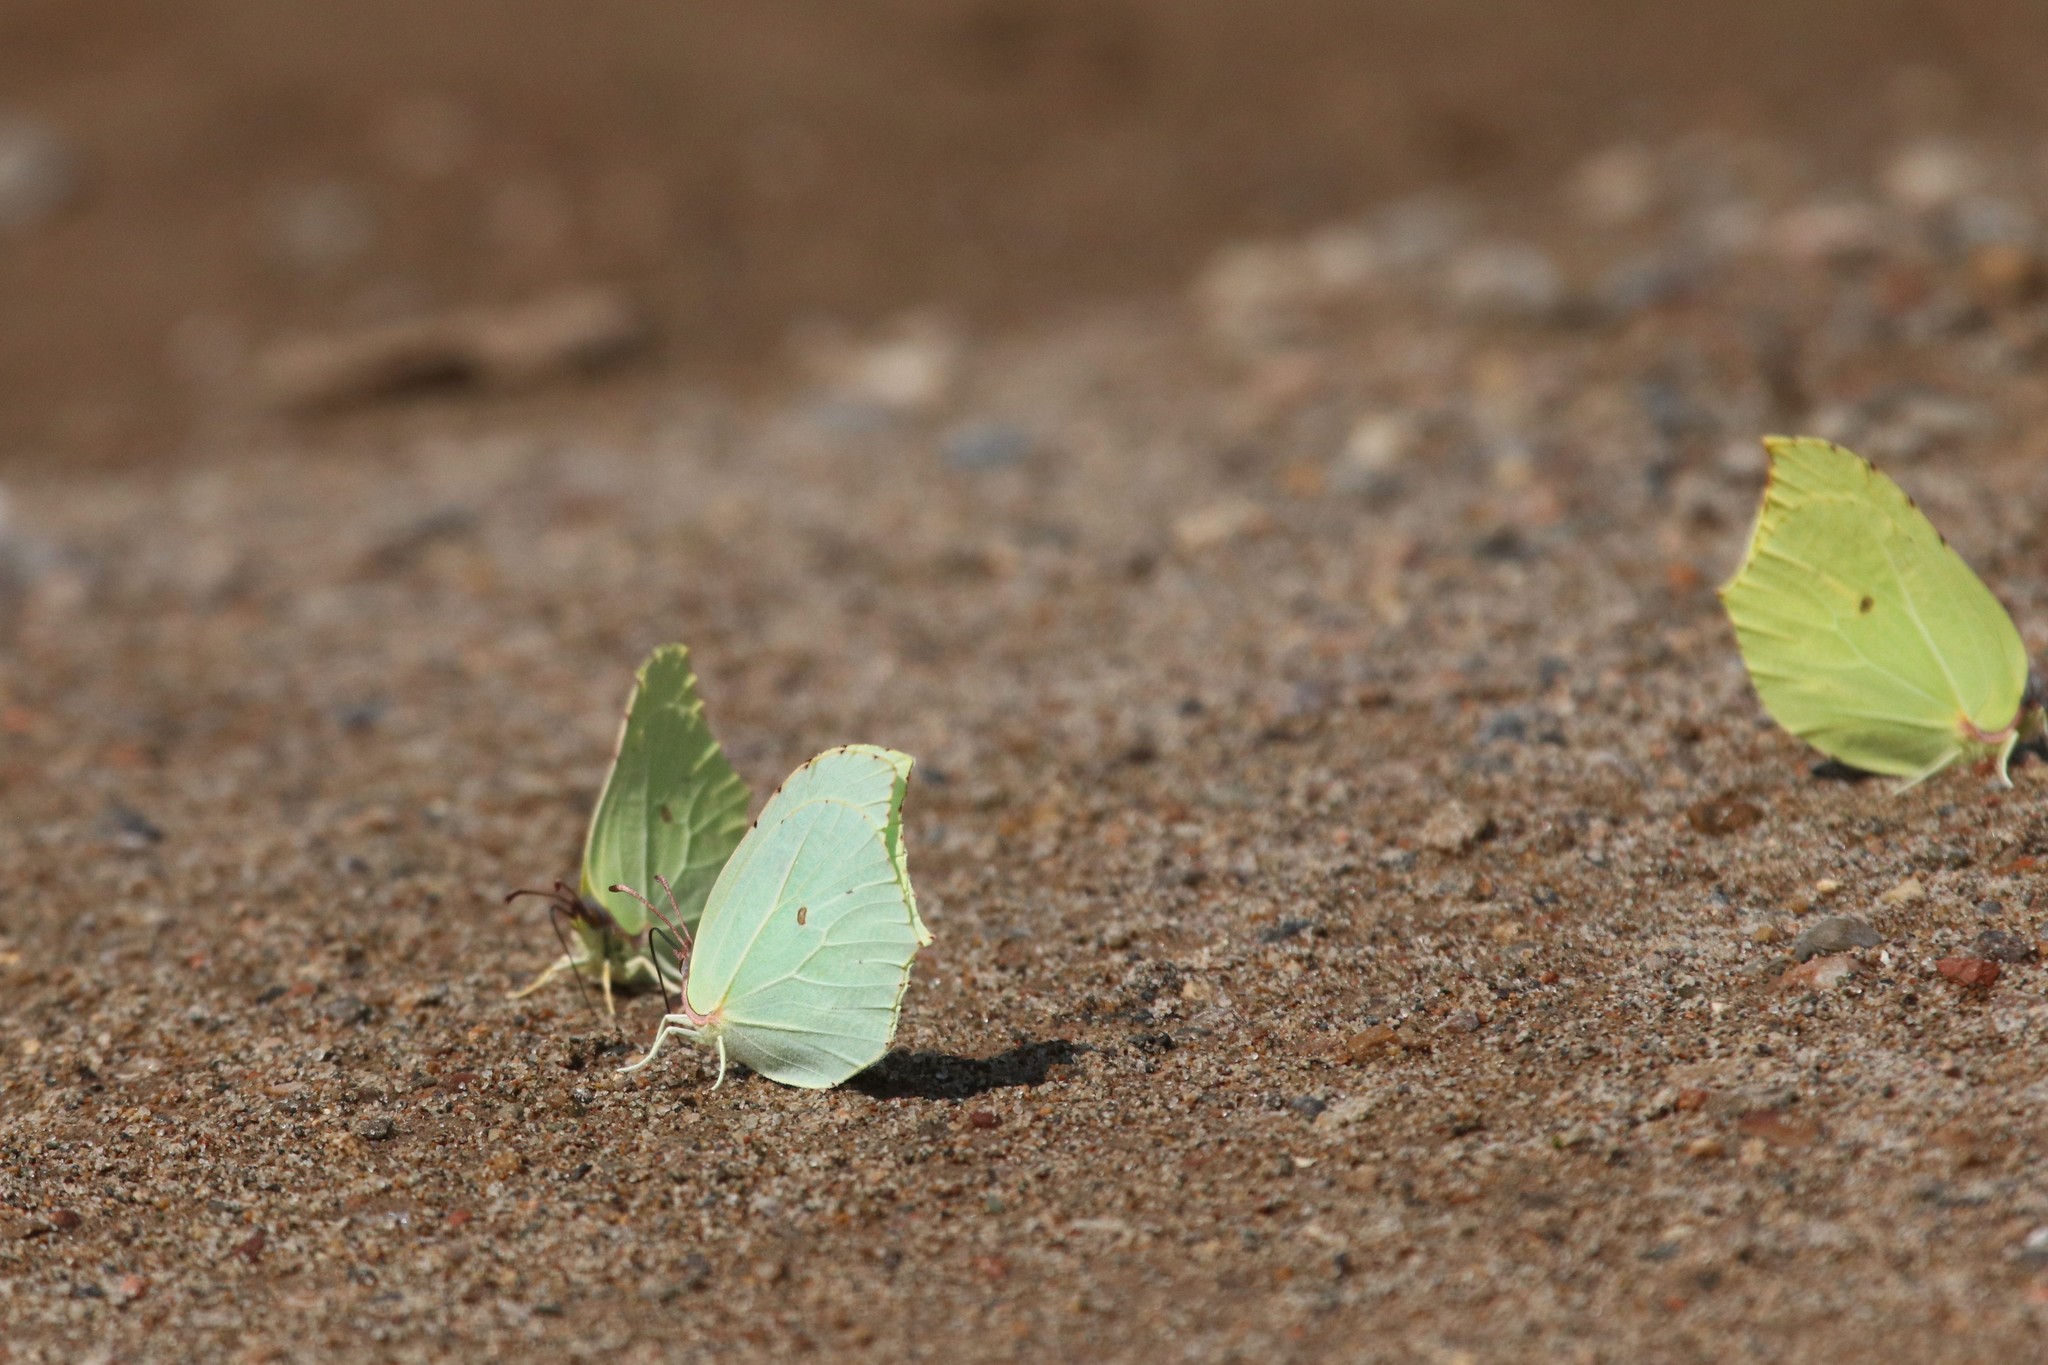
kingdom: Animalia
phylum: Arthropoda
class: Insecta
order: Lepidoptera
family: Pieridae
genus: Gonepteryx
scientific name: Gonepteryx rhamni
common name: Brimstone
